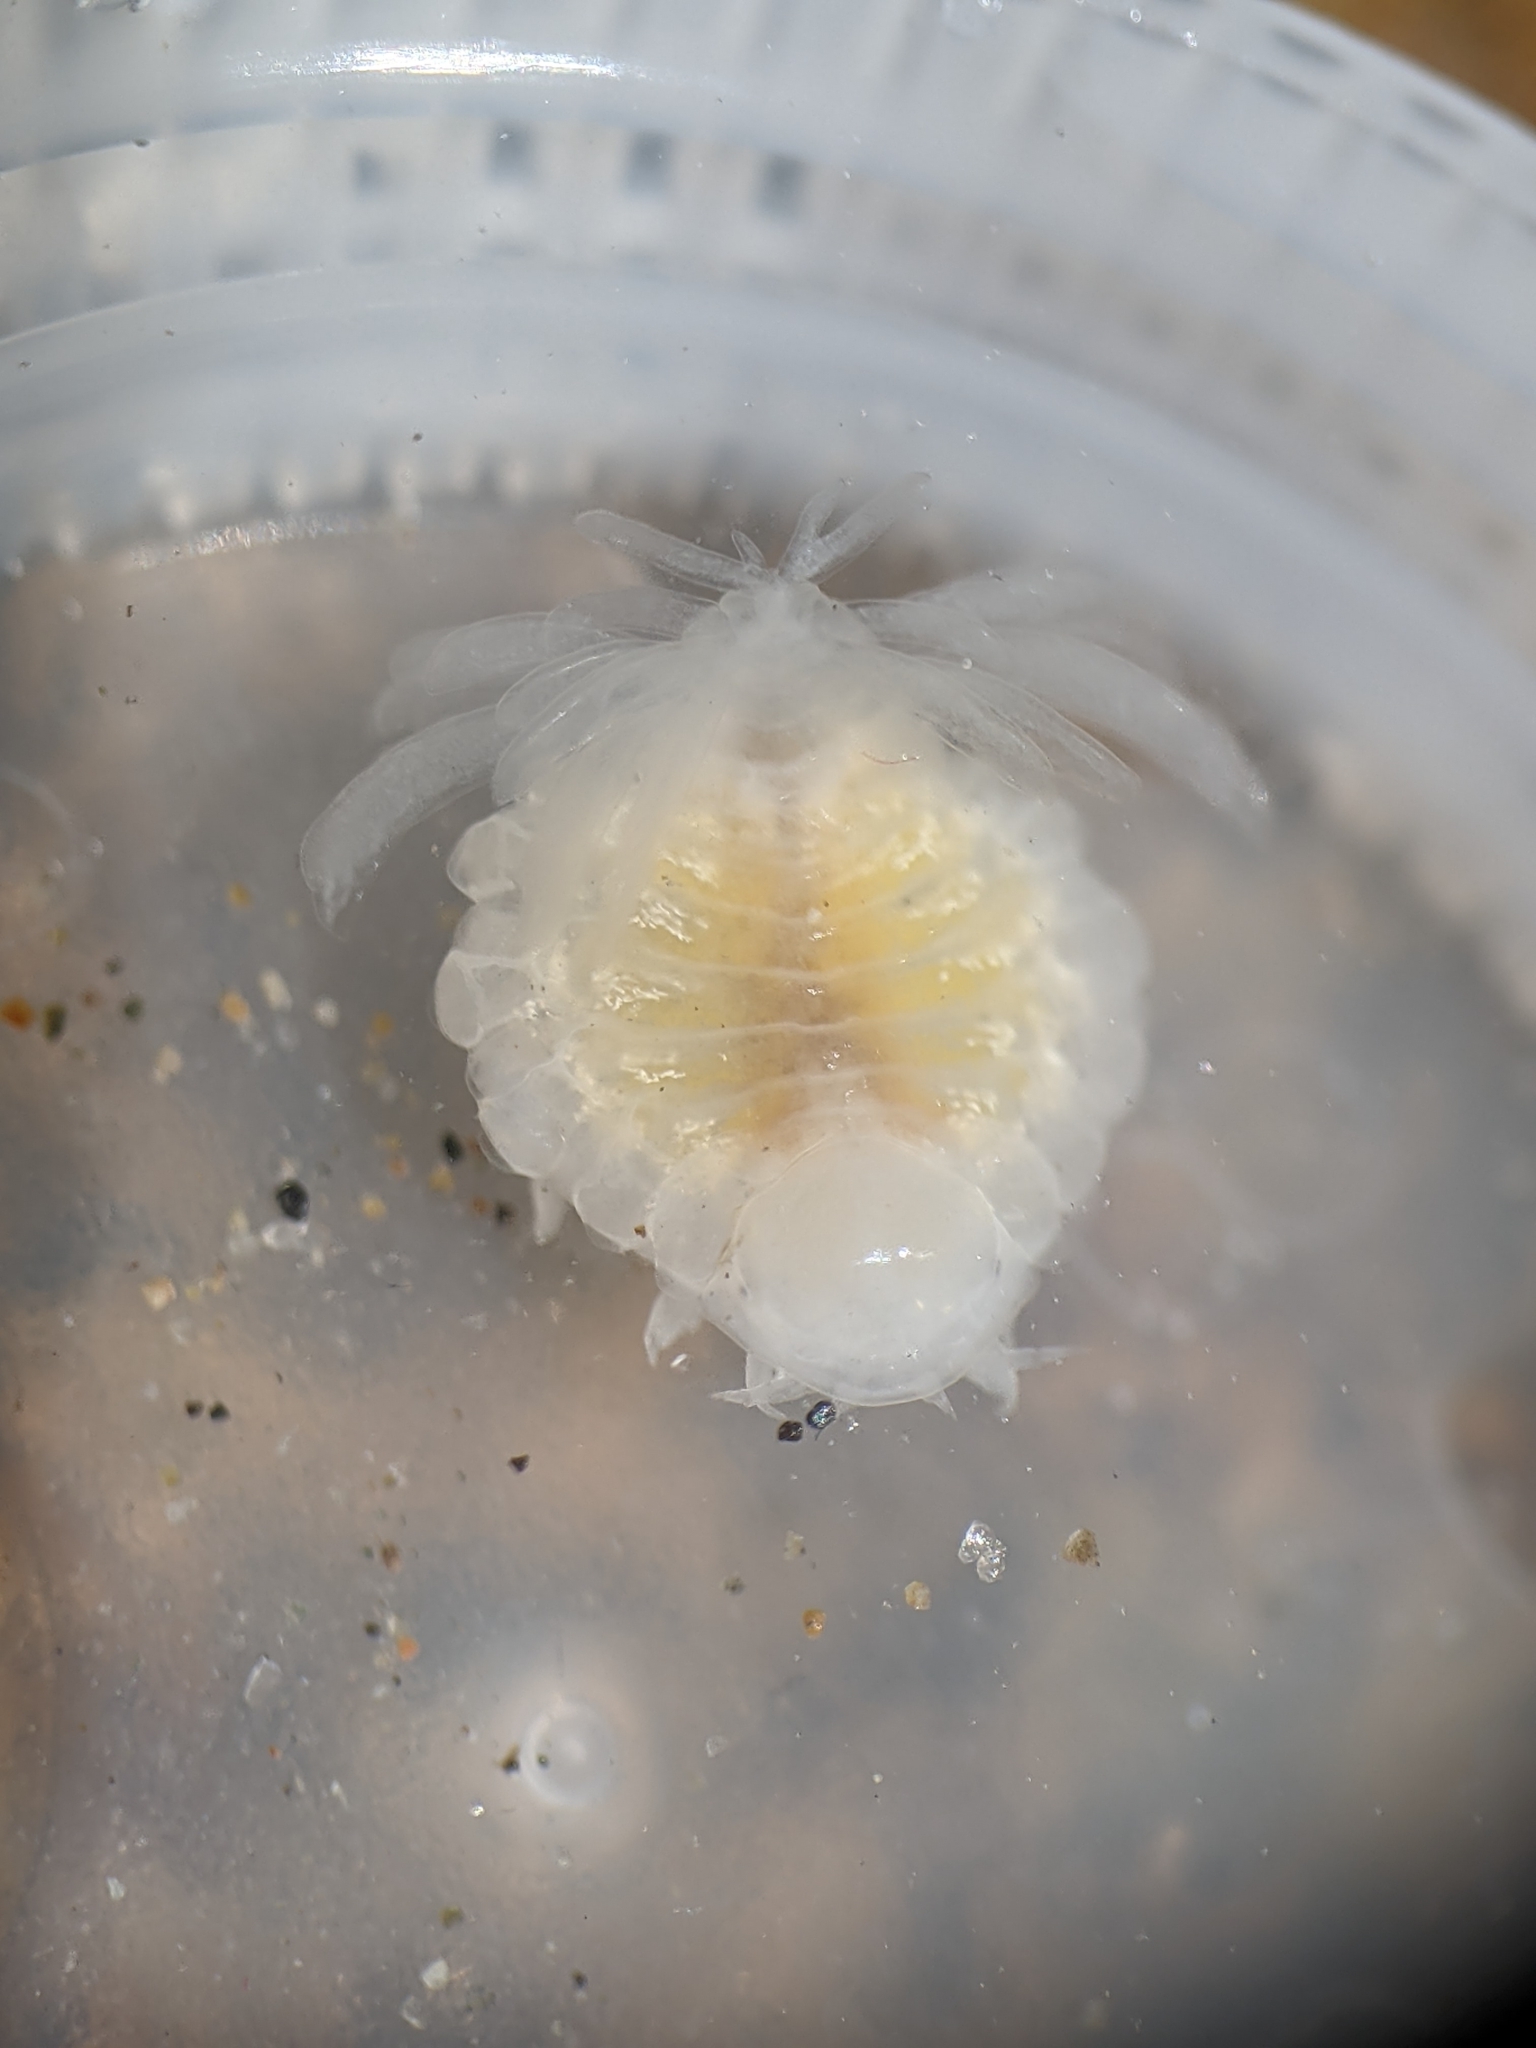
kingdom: Animalia
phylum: Arthropoda
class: Malacostraca
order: Isopoda
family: Bopyridae
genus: Phyllodurus
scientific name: Phyllodurus abdominalis
